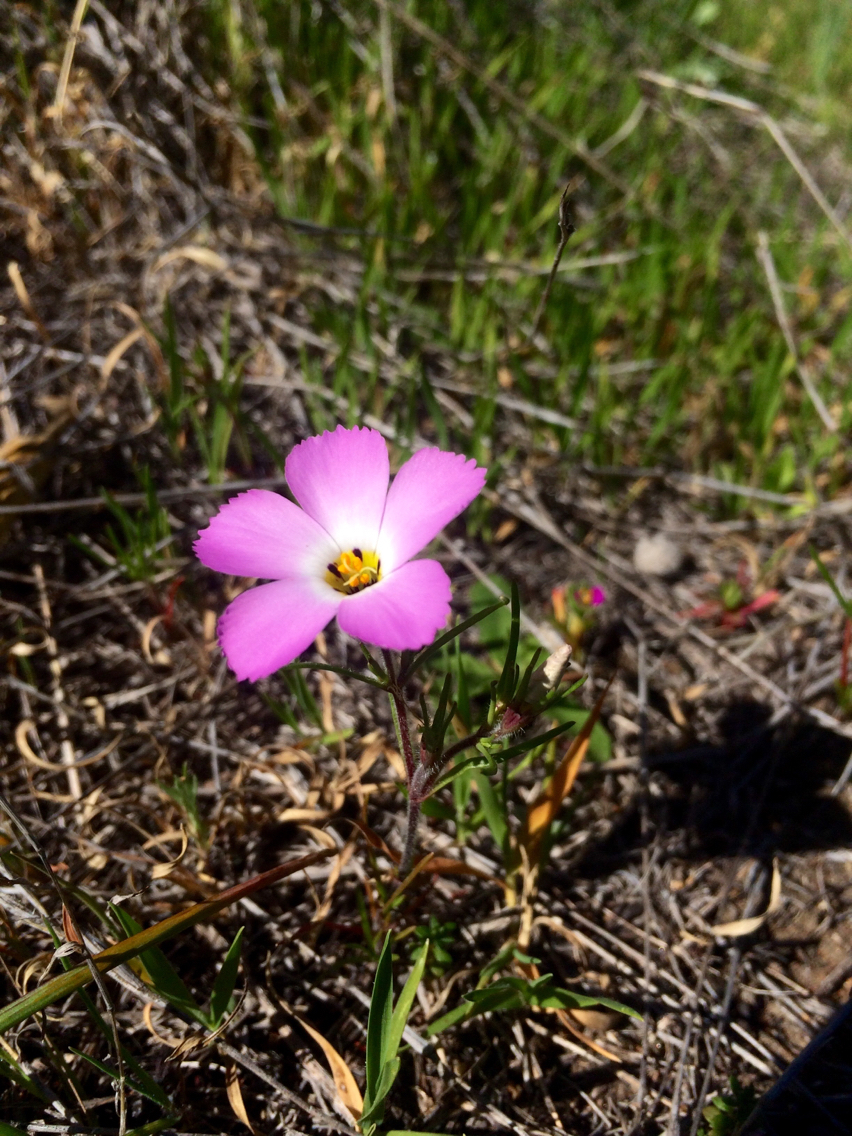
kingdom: Plantae
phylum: Tracheophyta
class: Magnoliopsida
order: Ericales
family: Polemoniaceae
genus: Linanthus
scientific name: Linanthus dianthiflorus
